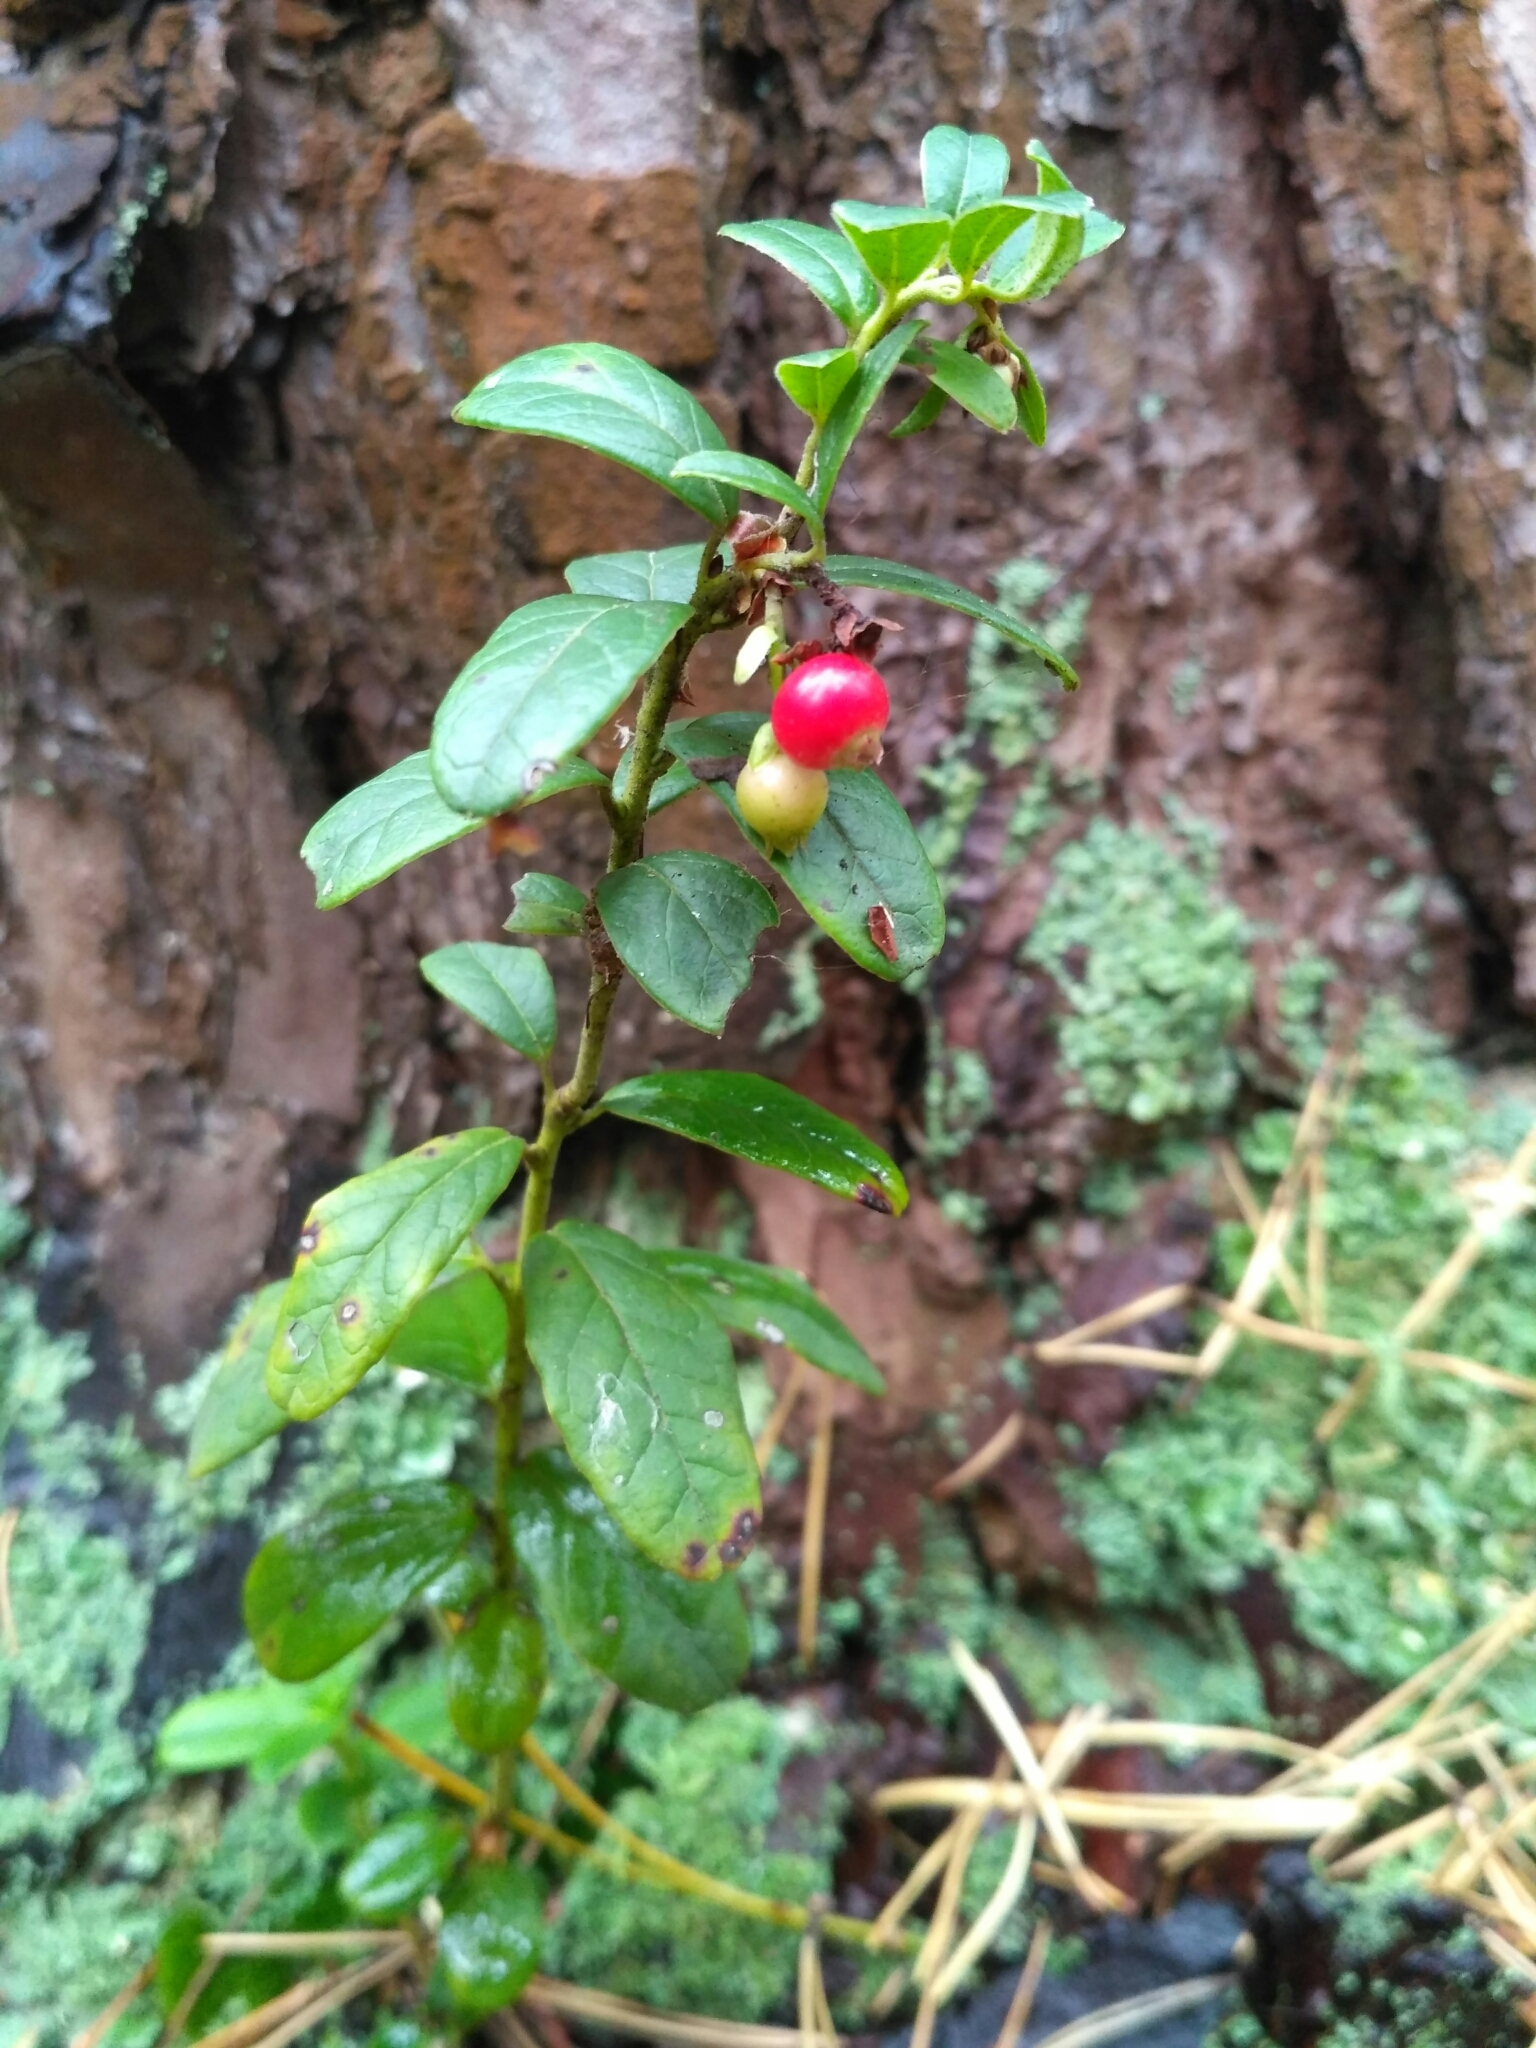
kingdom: Plantae
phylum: Tracheophyta
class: Magnoliopsida
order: Ericales
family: Ericaceae
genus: Vaccinium
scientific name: Vaccinium vitis-idaea
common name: Cowberry
